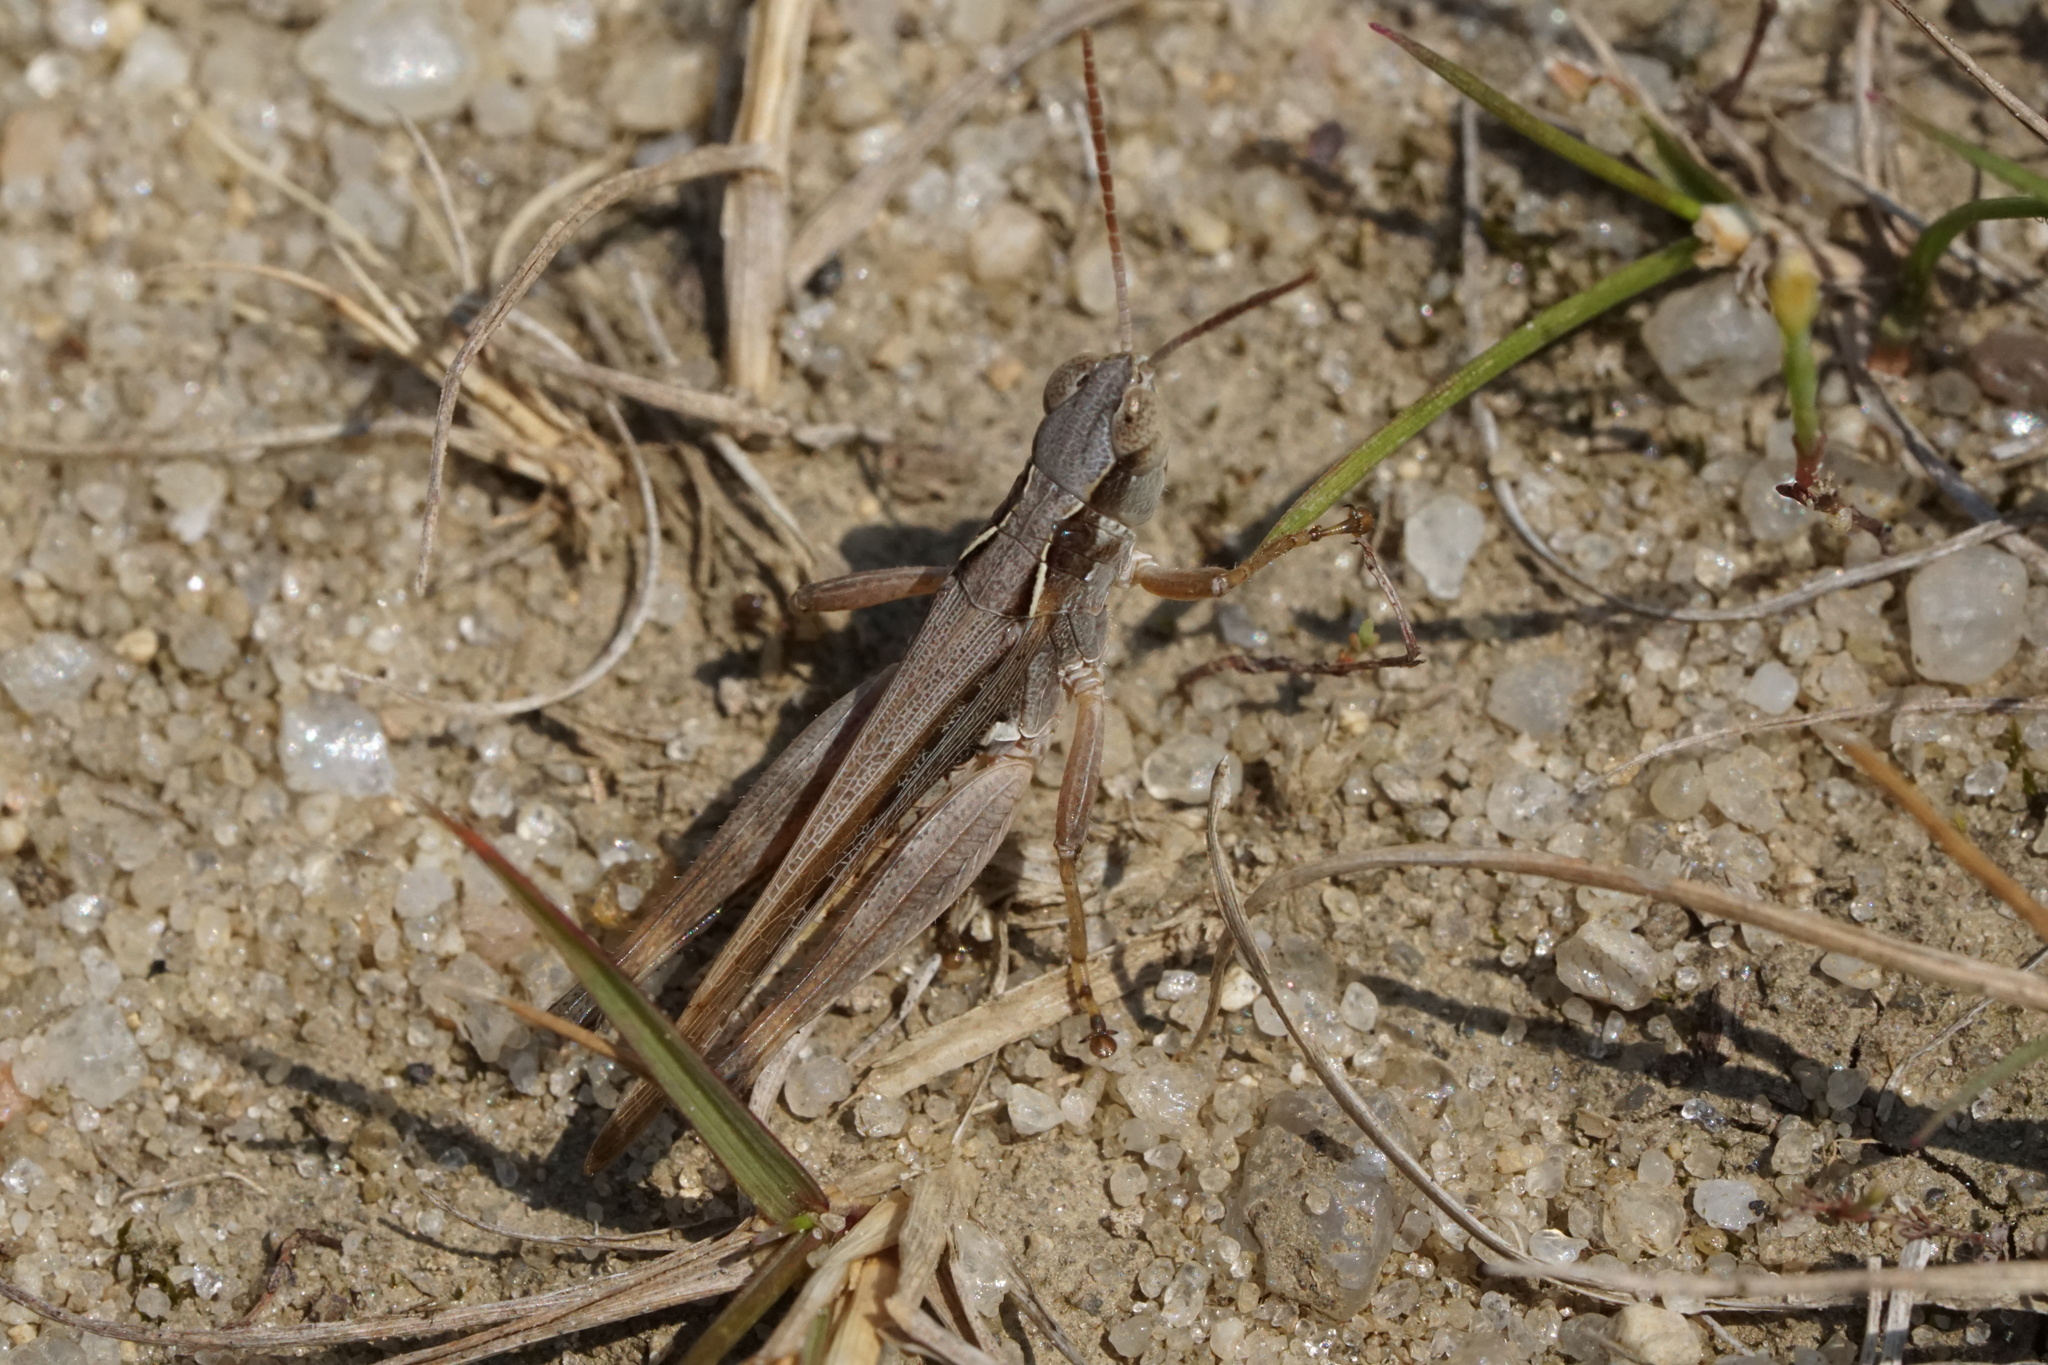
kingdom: Animalia
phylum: Arthropoda
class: Insecta
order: Orthoptera
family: Acrididae
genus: Orphulella
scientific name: Orphulella pelidna
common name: Spotted-wing grasshopper
